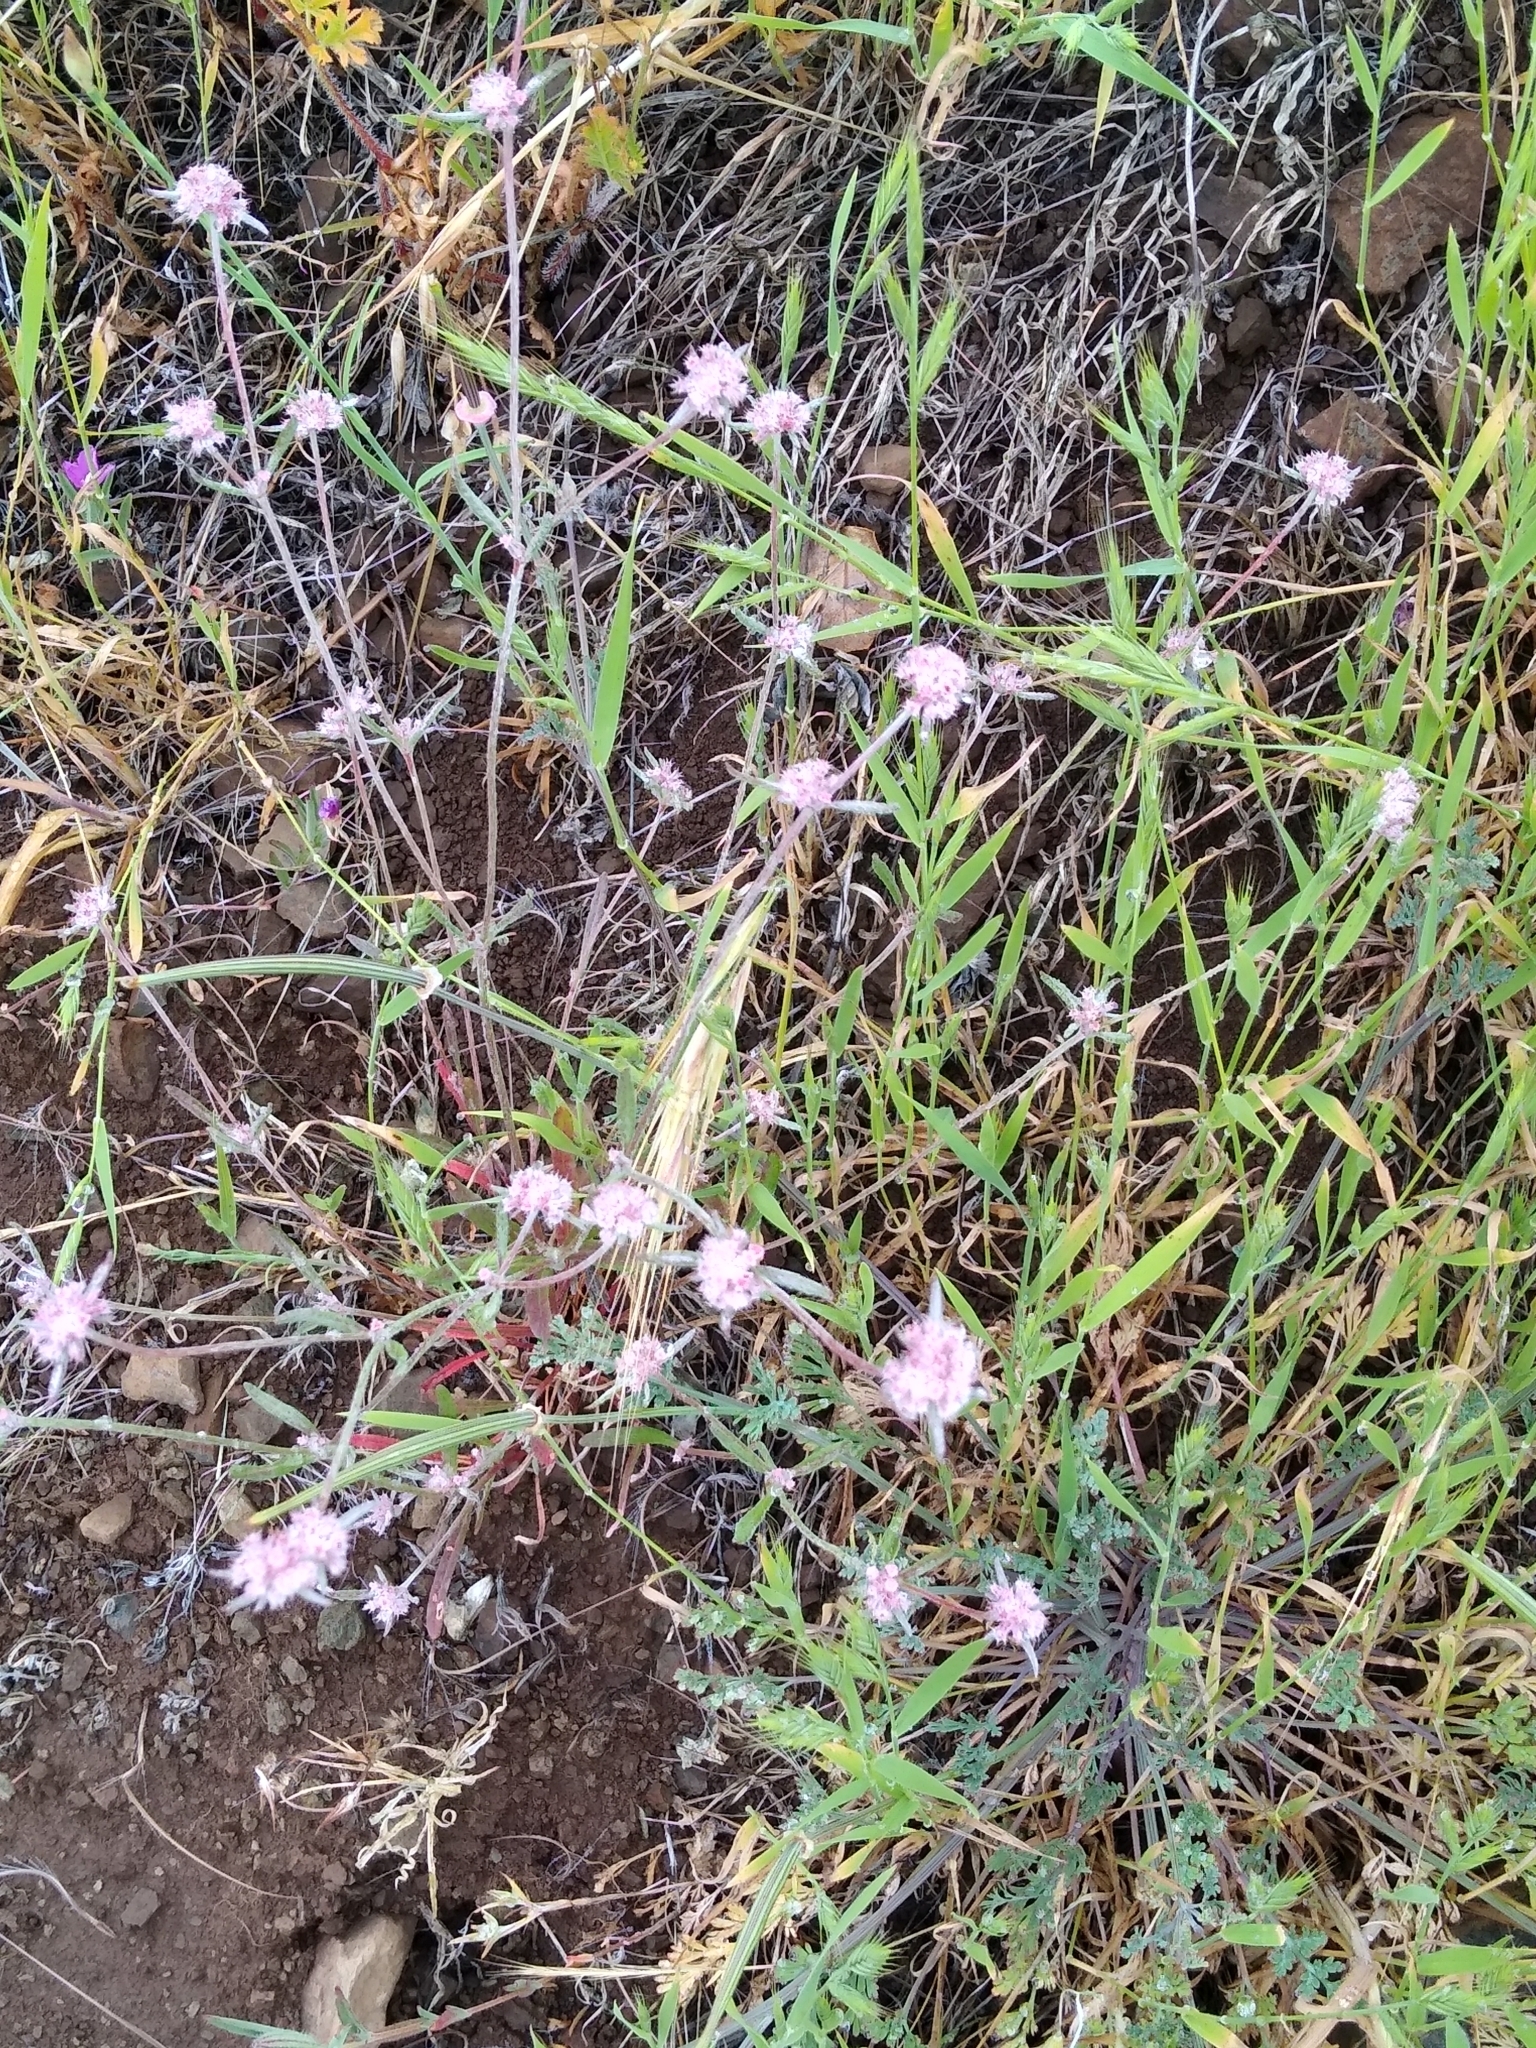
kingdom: Plantae
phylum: Tracheophyta
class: Magnoliopsida
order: Caryophyllales
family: Polygonaceae
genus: Chorizanthe
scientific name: Chorizanthe membranacea
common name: Pink spineflower
